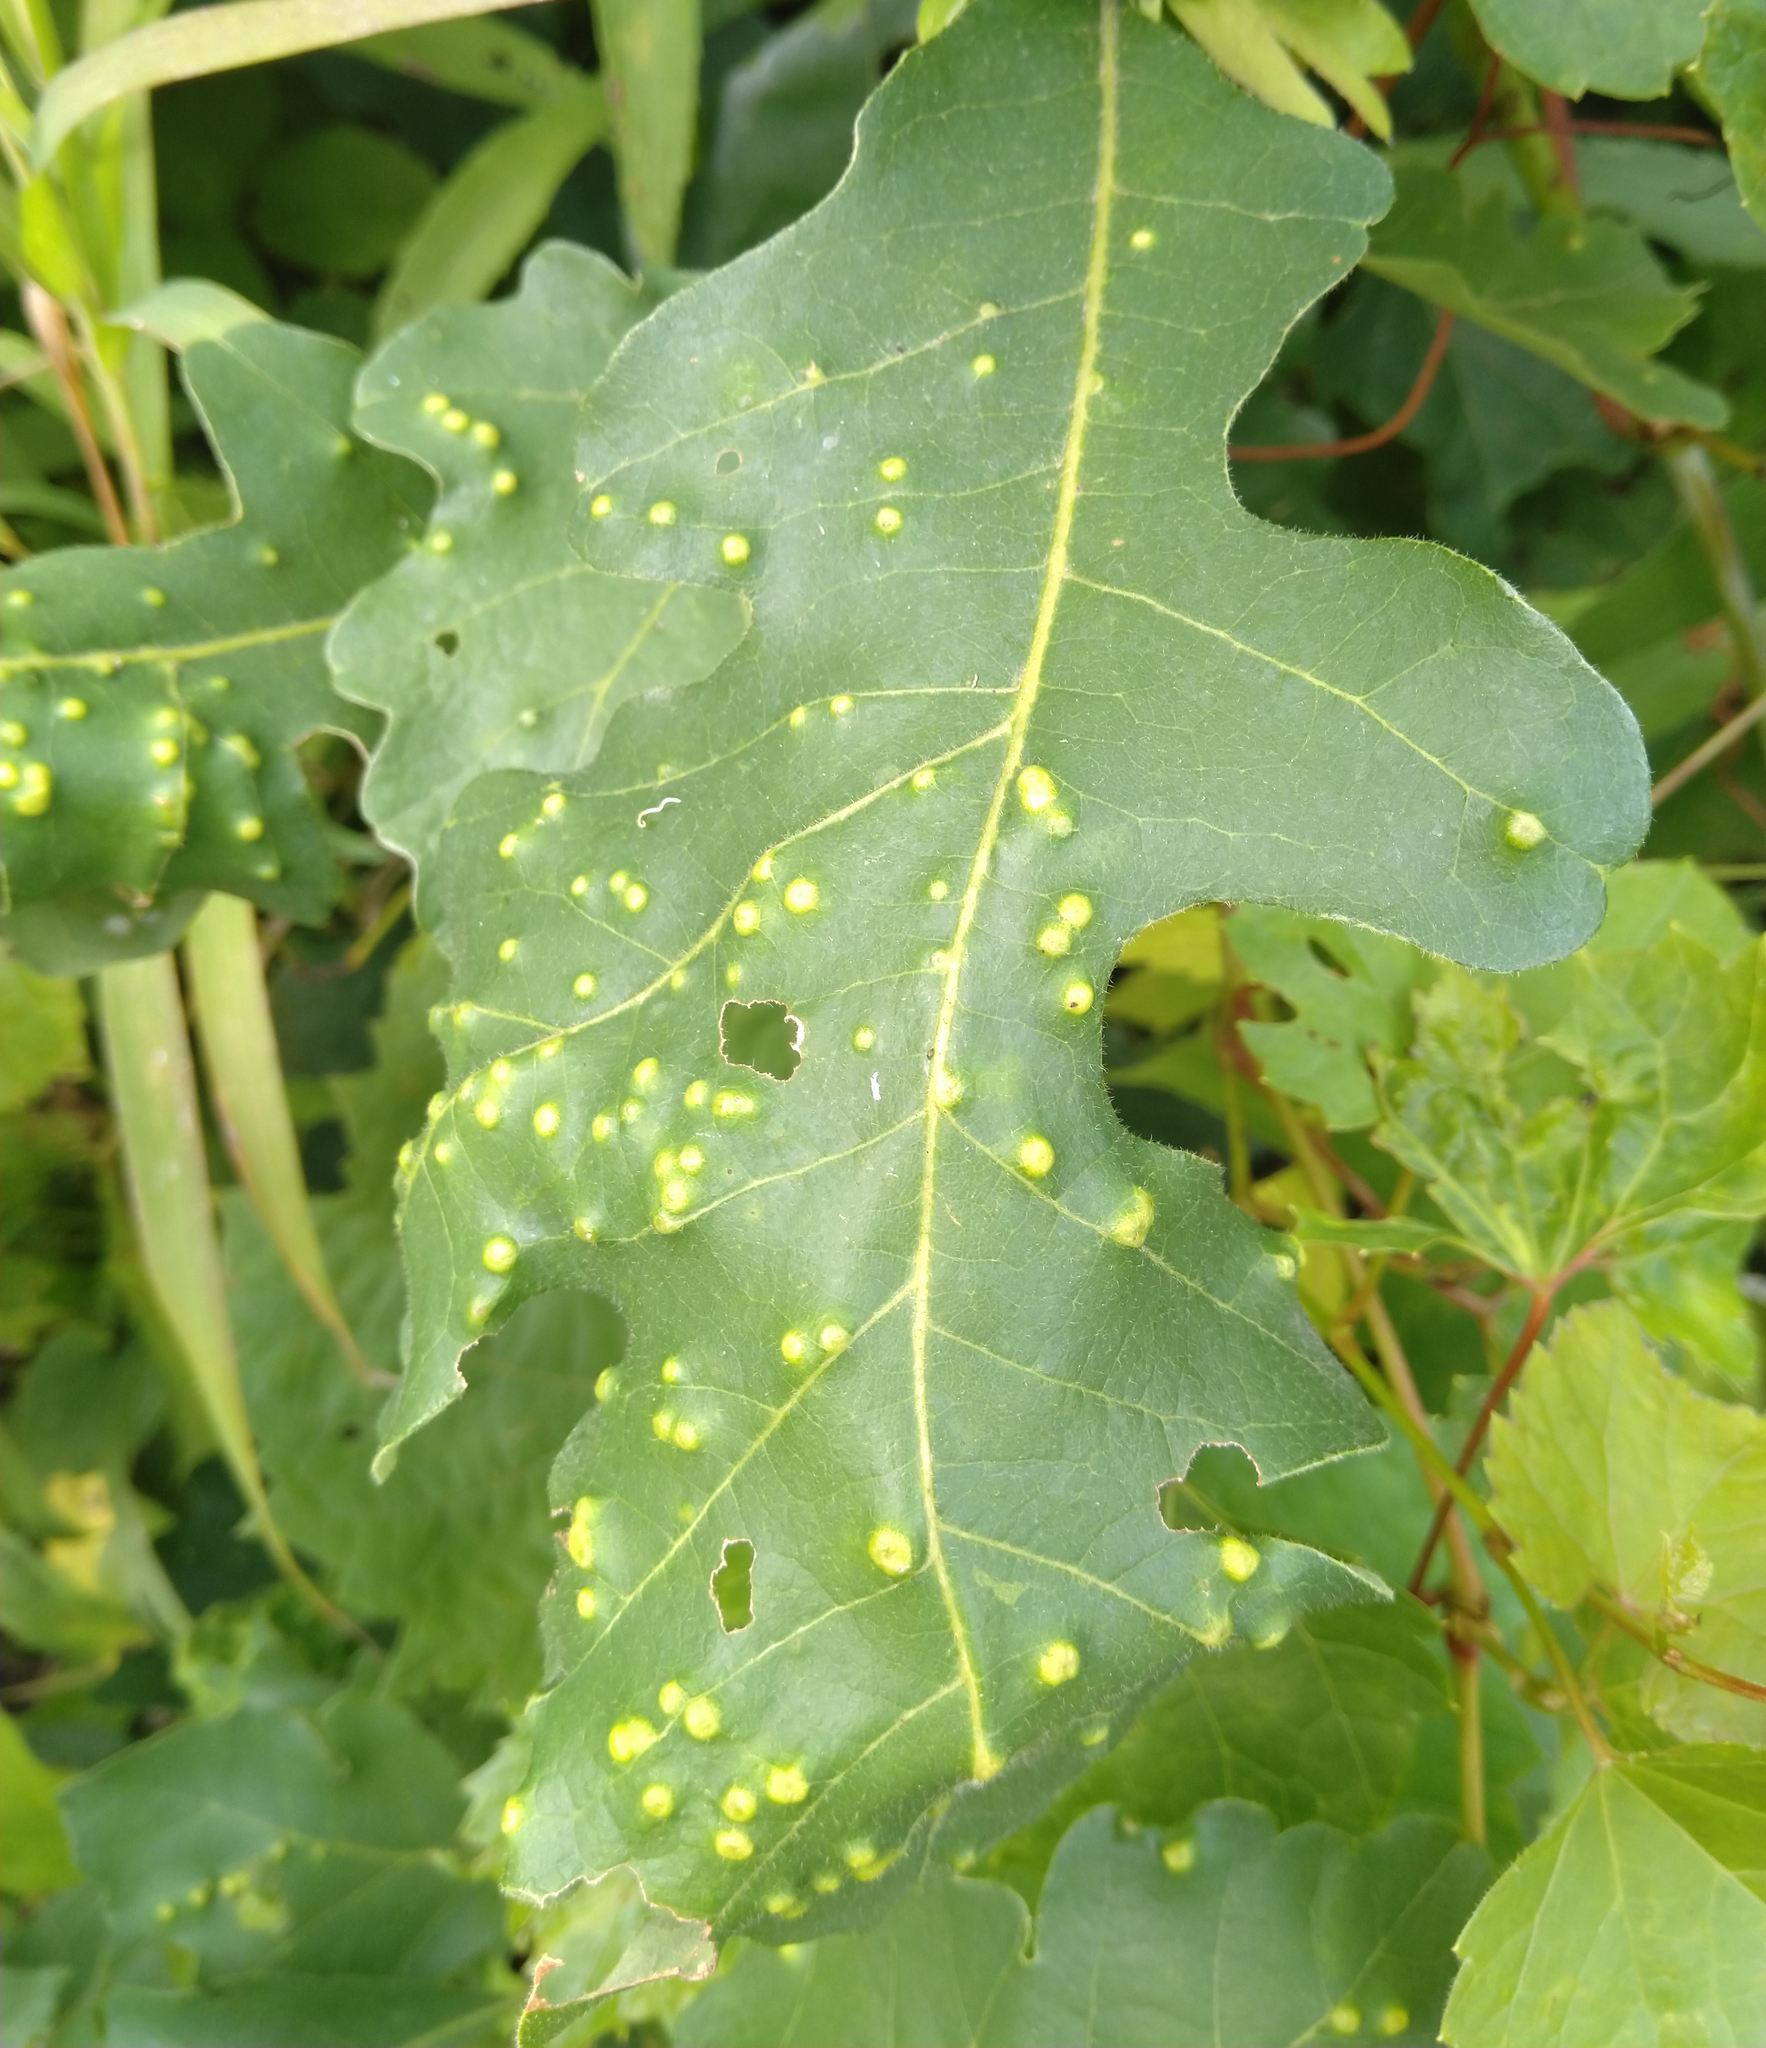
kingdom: Animalia
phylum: Arthropoda
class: Insecta
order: Hymenoptera
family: Cynipidae
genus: Neuroterus
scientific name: Neuroterus quercusverrucarum
